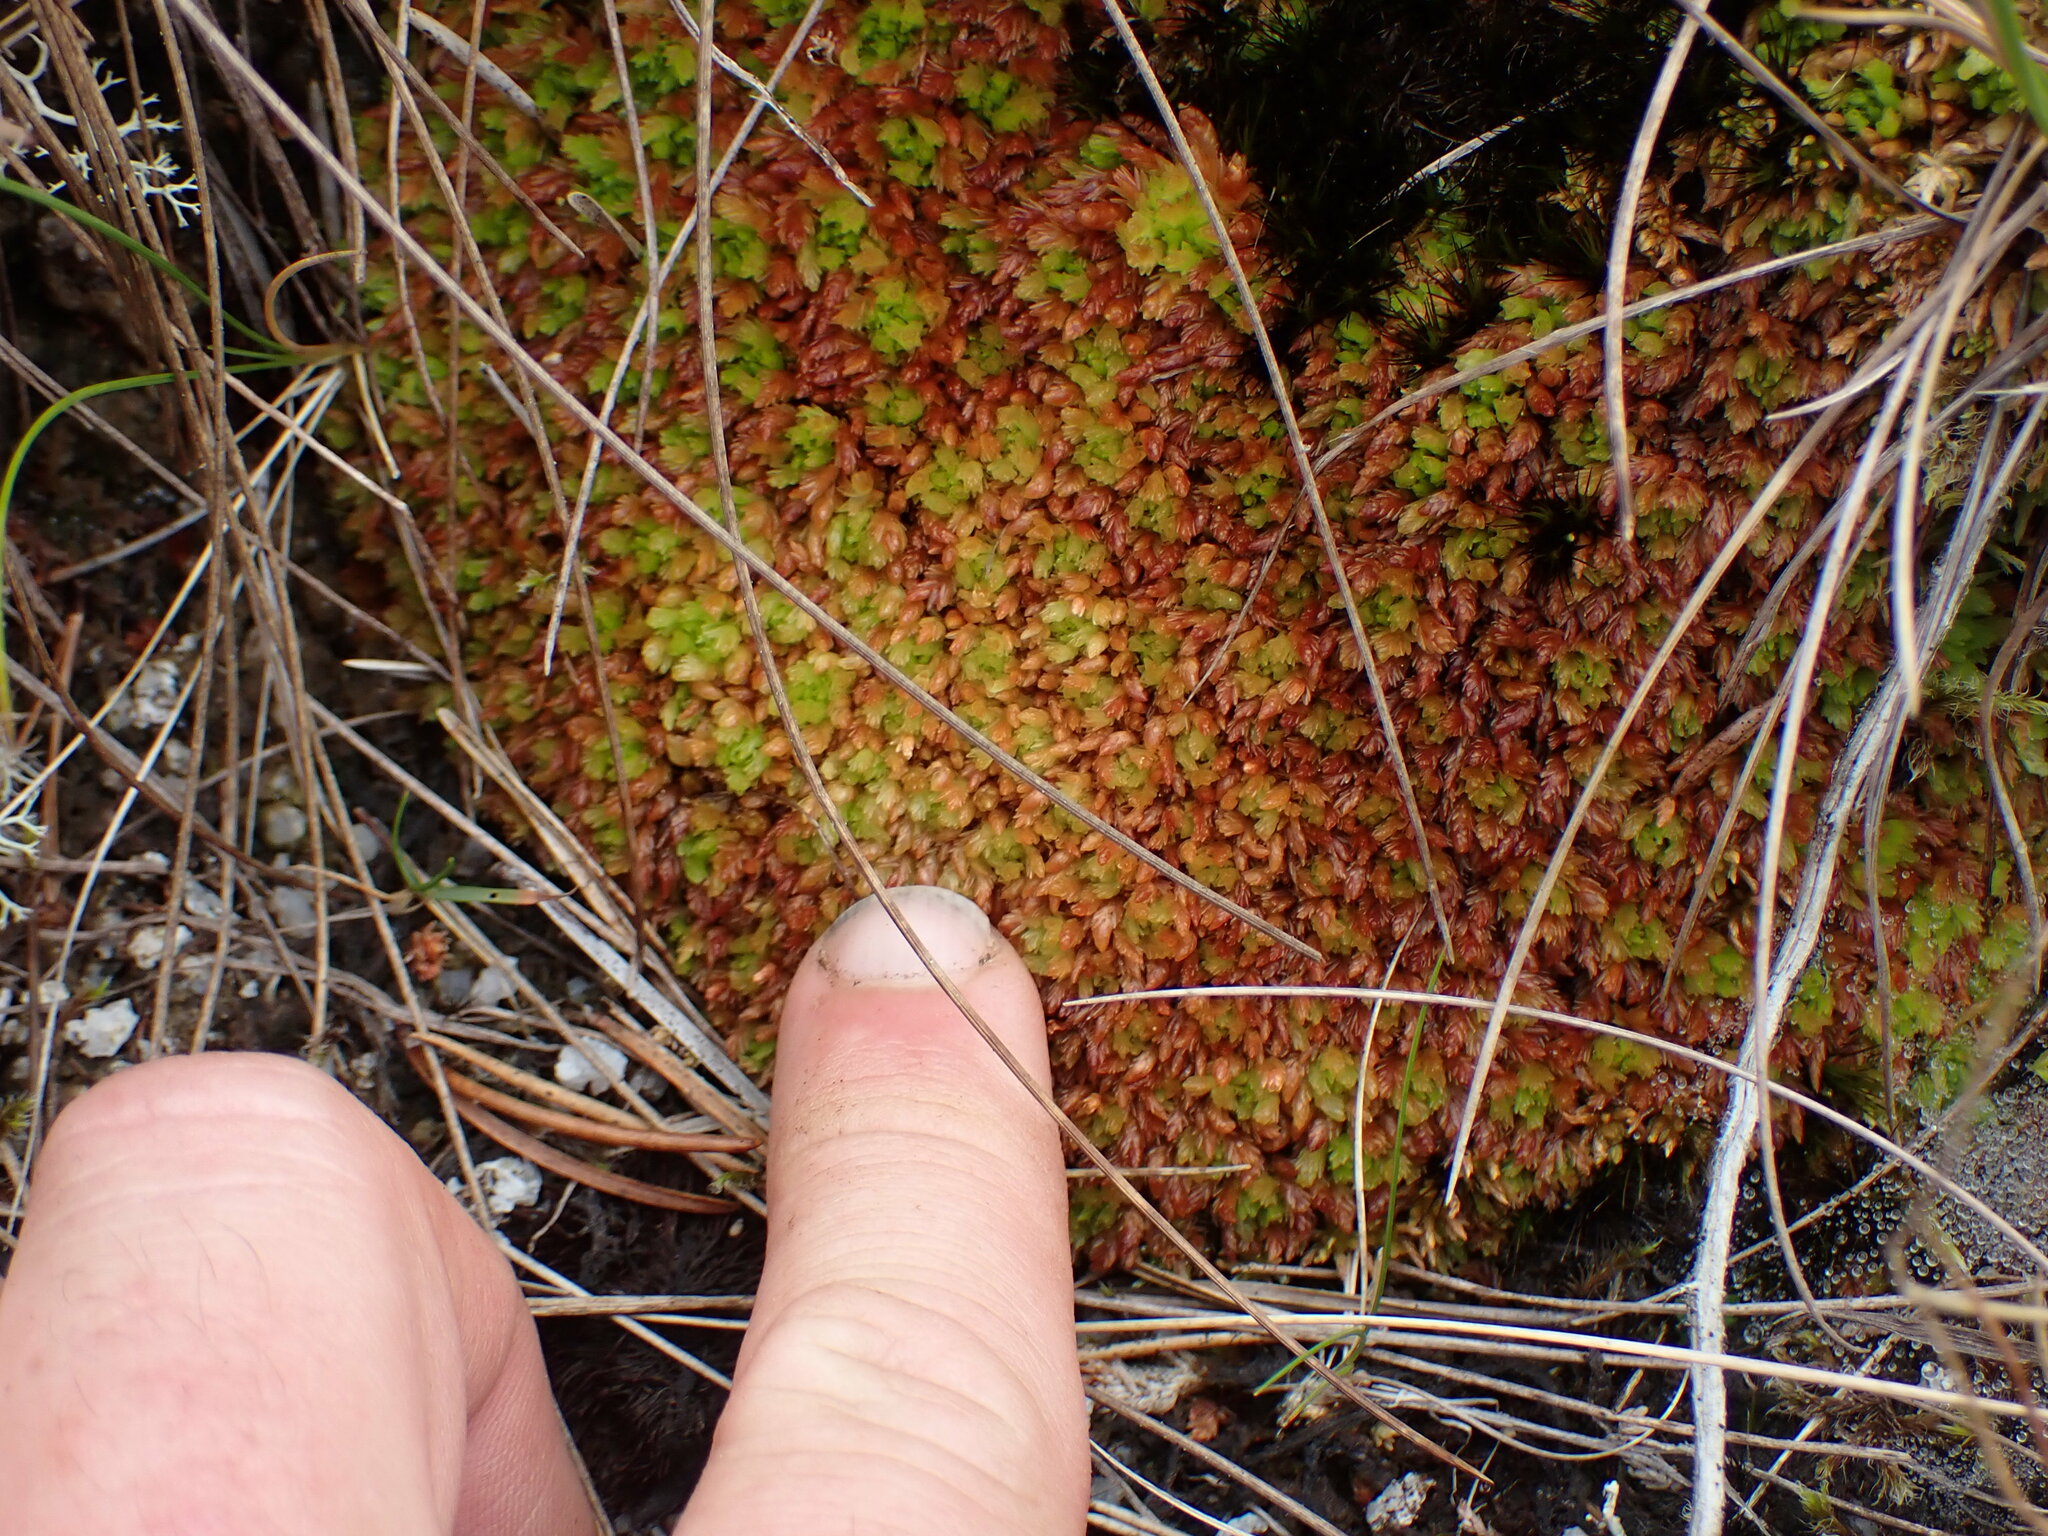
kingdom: Plantae
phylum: Bryophyta
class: Sphagnopsida
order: Sphagnales
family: Sphagnaceae
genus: Sphagnum
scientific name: Sphagnum compactum
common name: Compact peat moss
